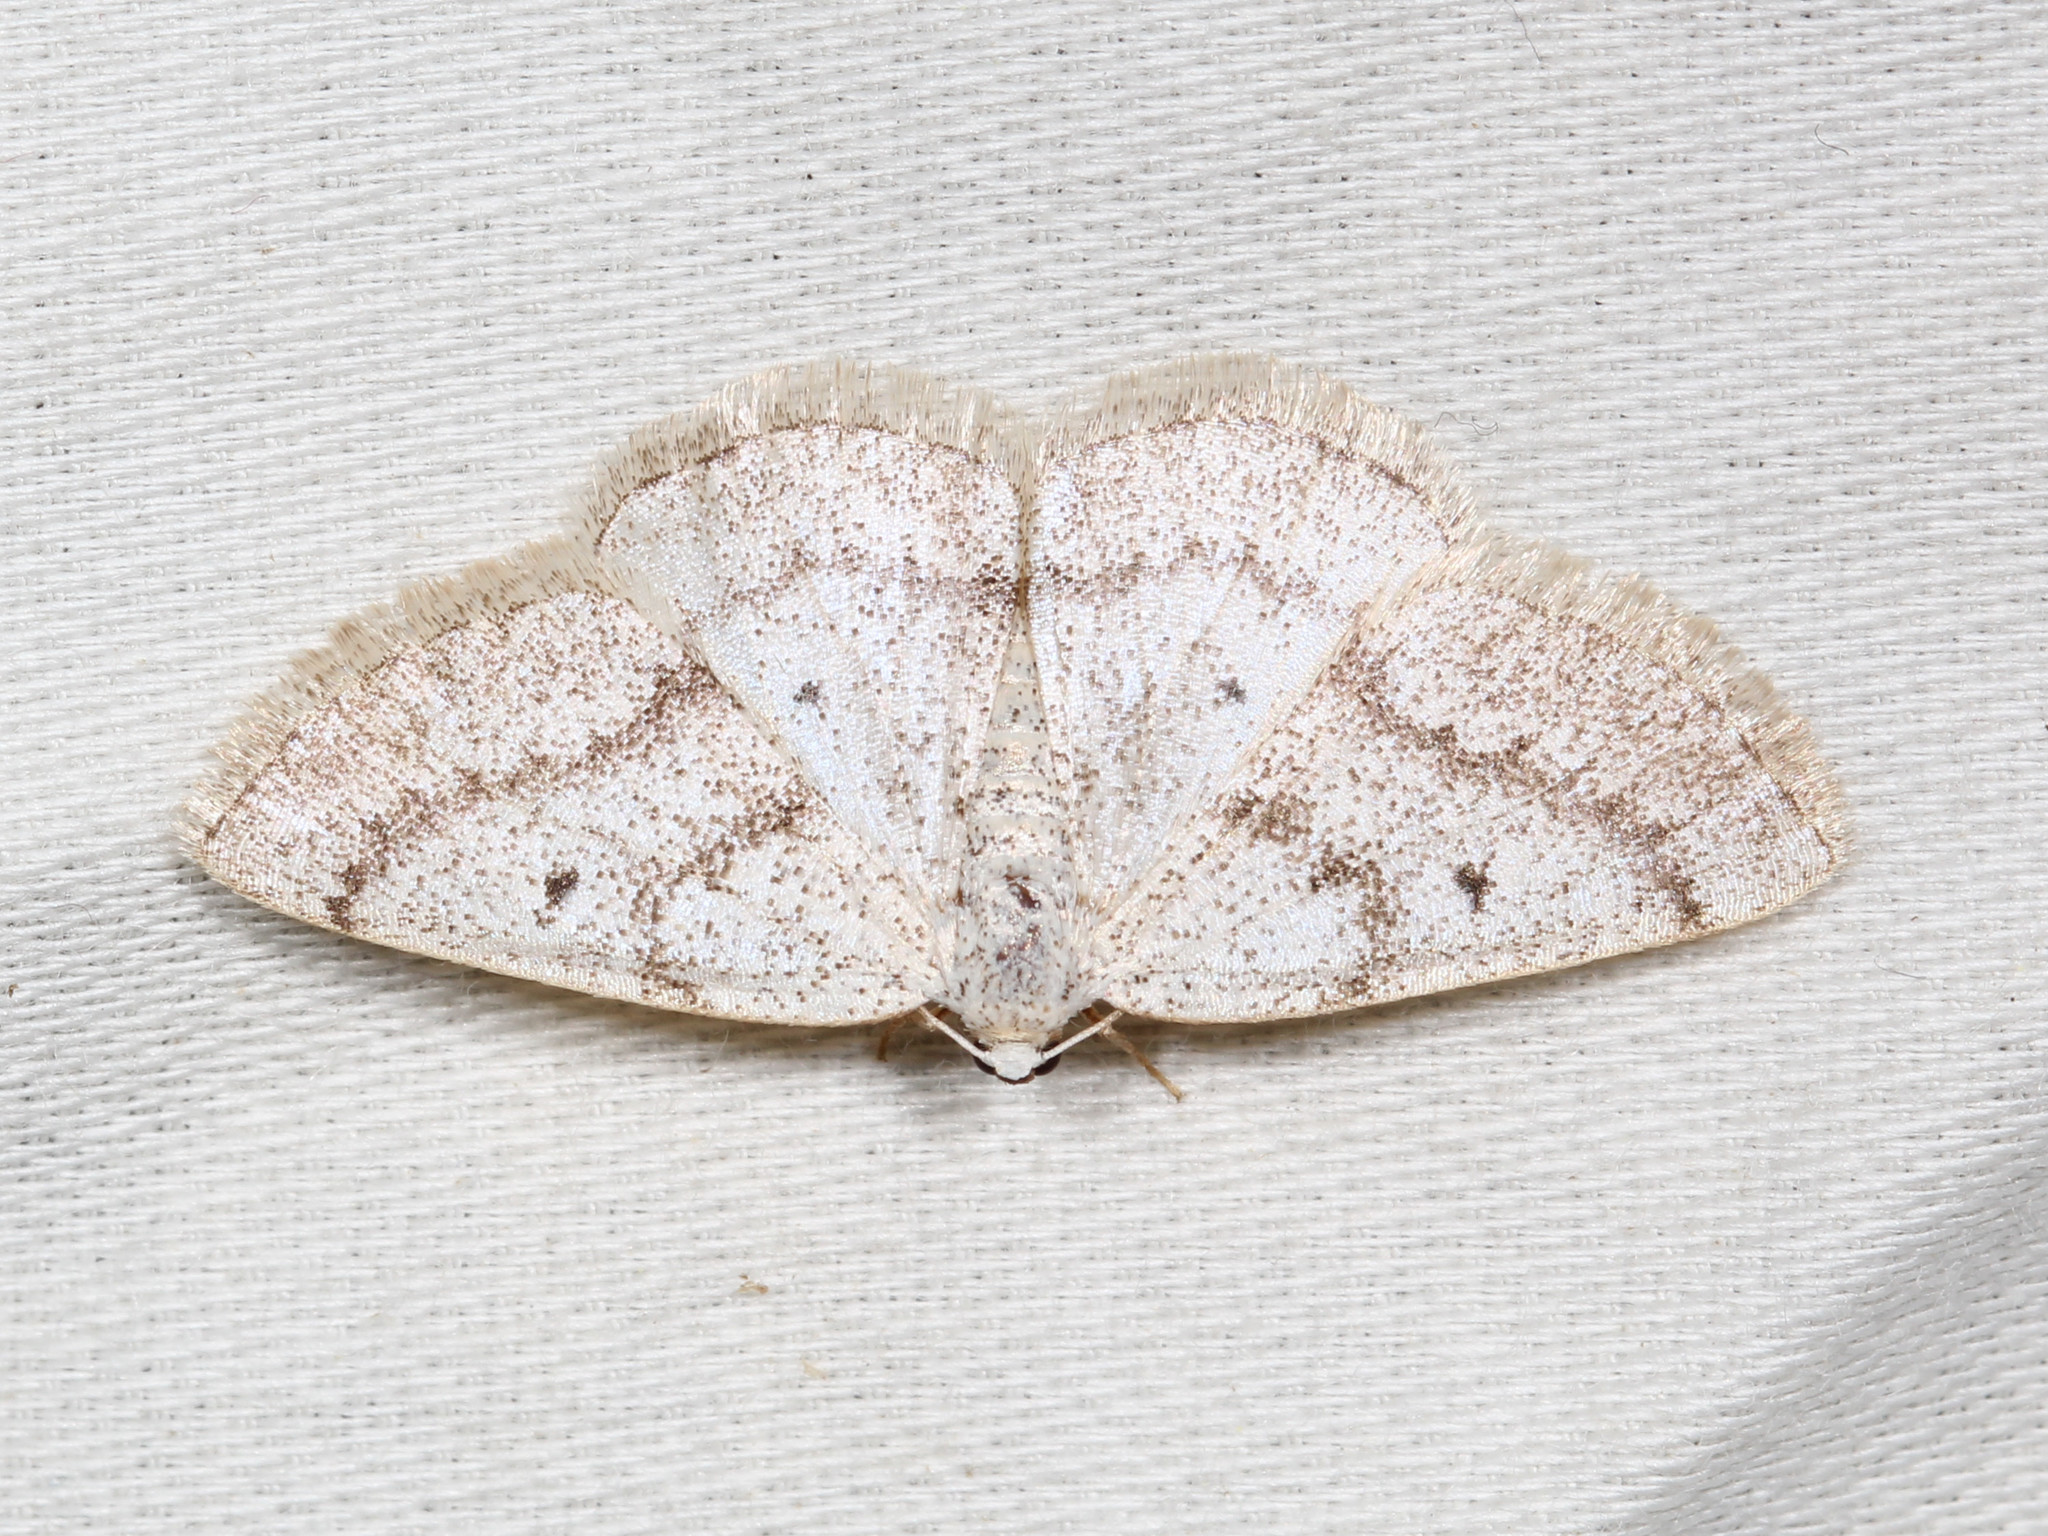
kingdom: Animalia
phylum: Arthropoda
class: Insecta
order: Lepidoptera
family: Geometridae
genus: Lomographa
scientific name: Lomographa glomeraria
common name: Gray spring moth
